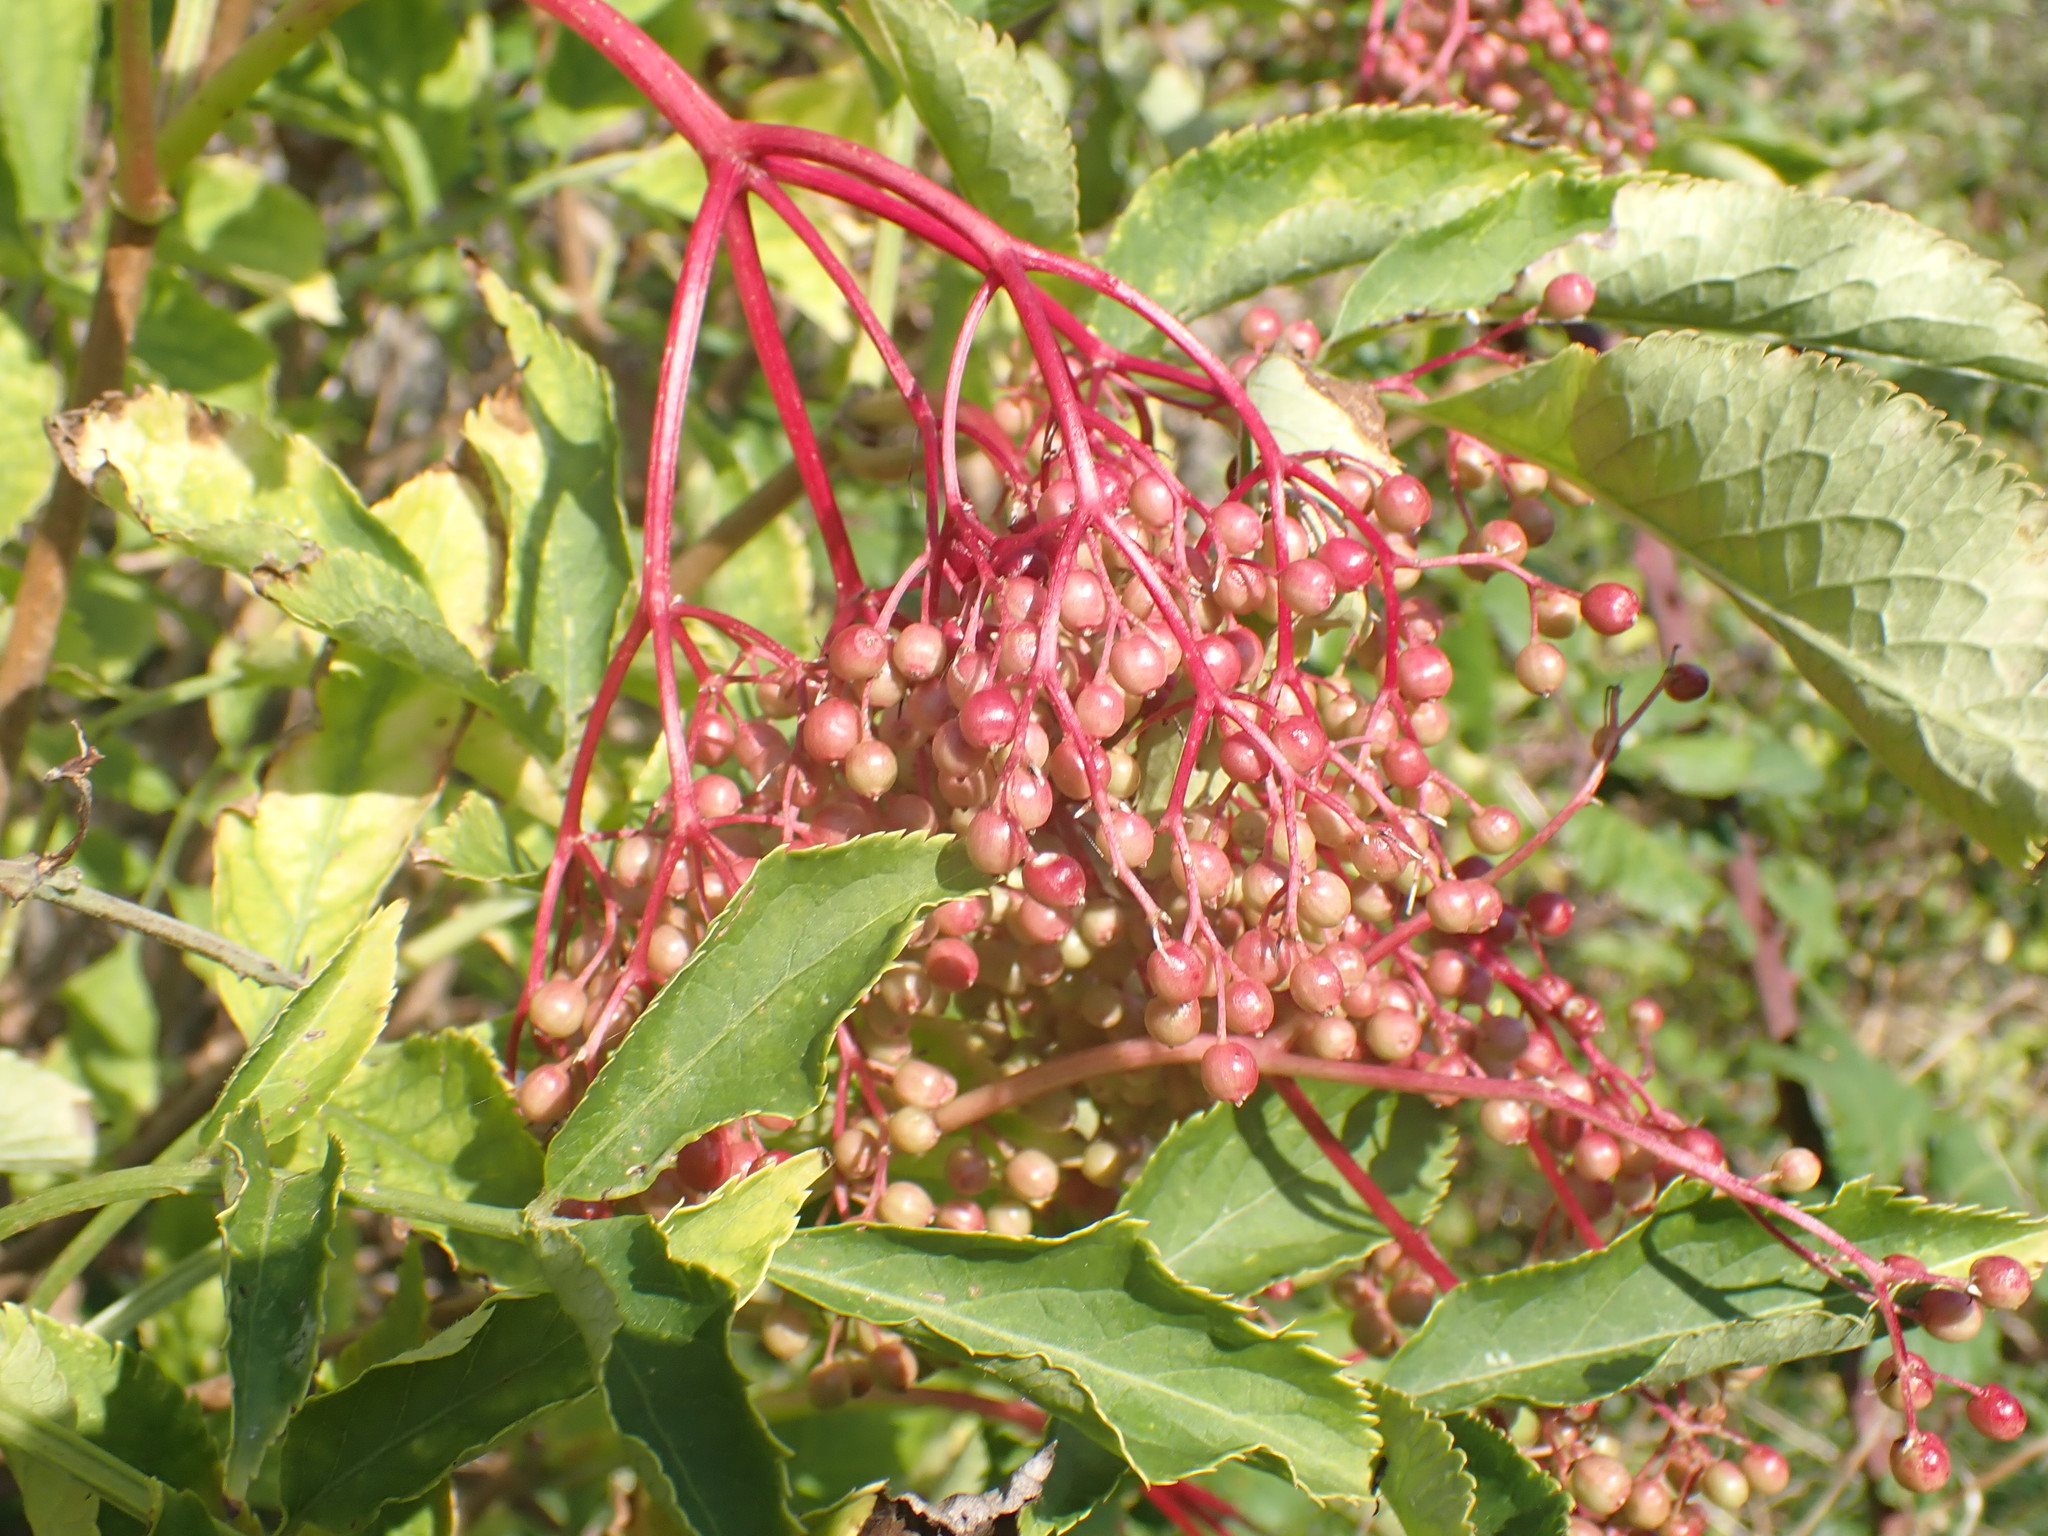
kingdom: Plantae
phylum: Tracheophyta
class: Magnoliopsida
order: Dipsacales
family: Viburnaceae
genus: Sambucus
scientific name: Sambucus nigra
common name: Elder
